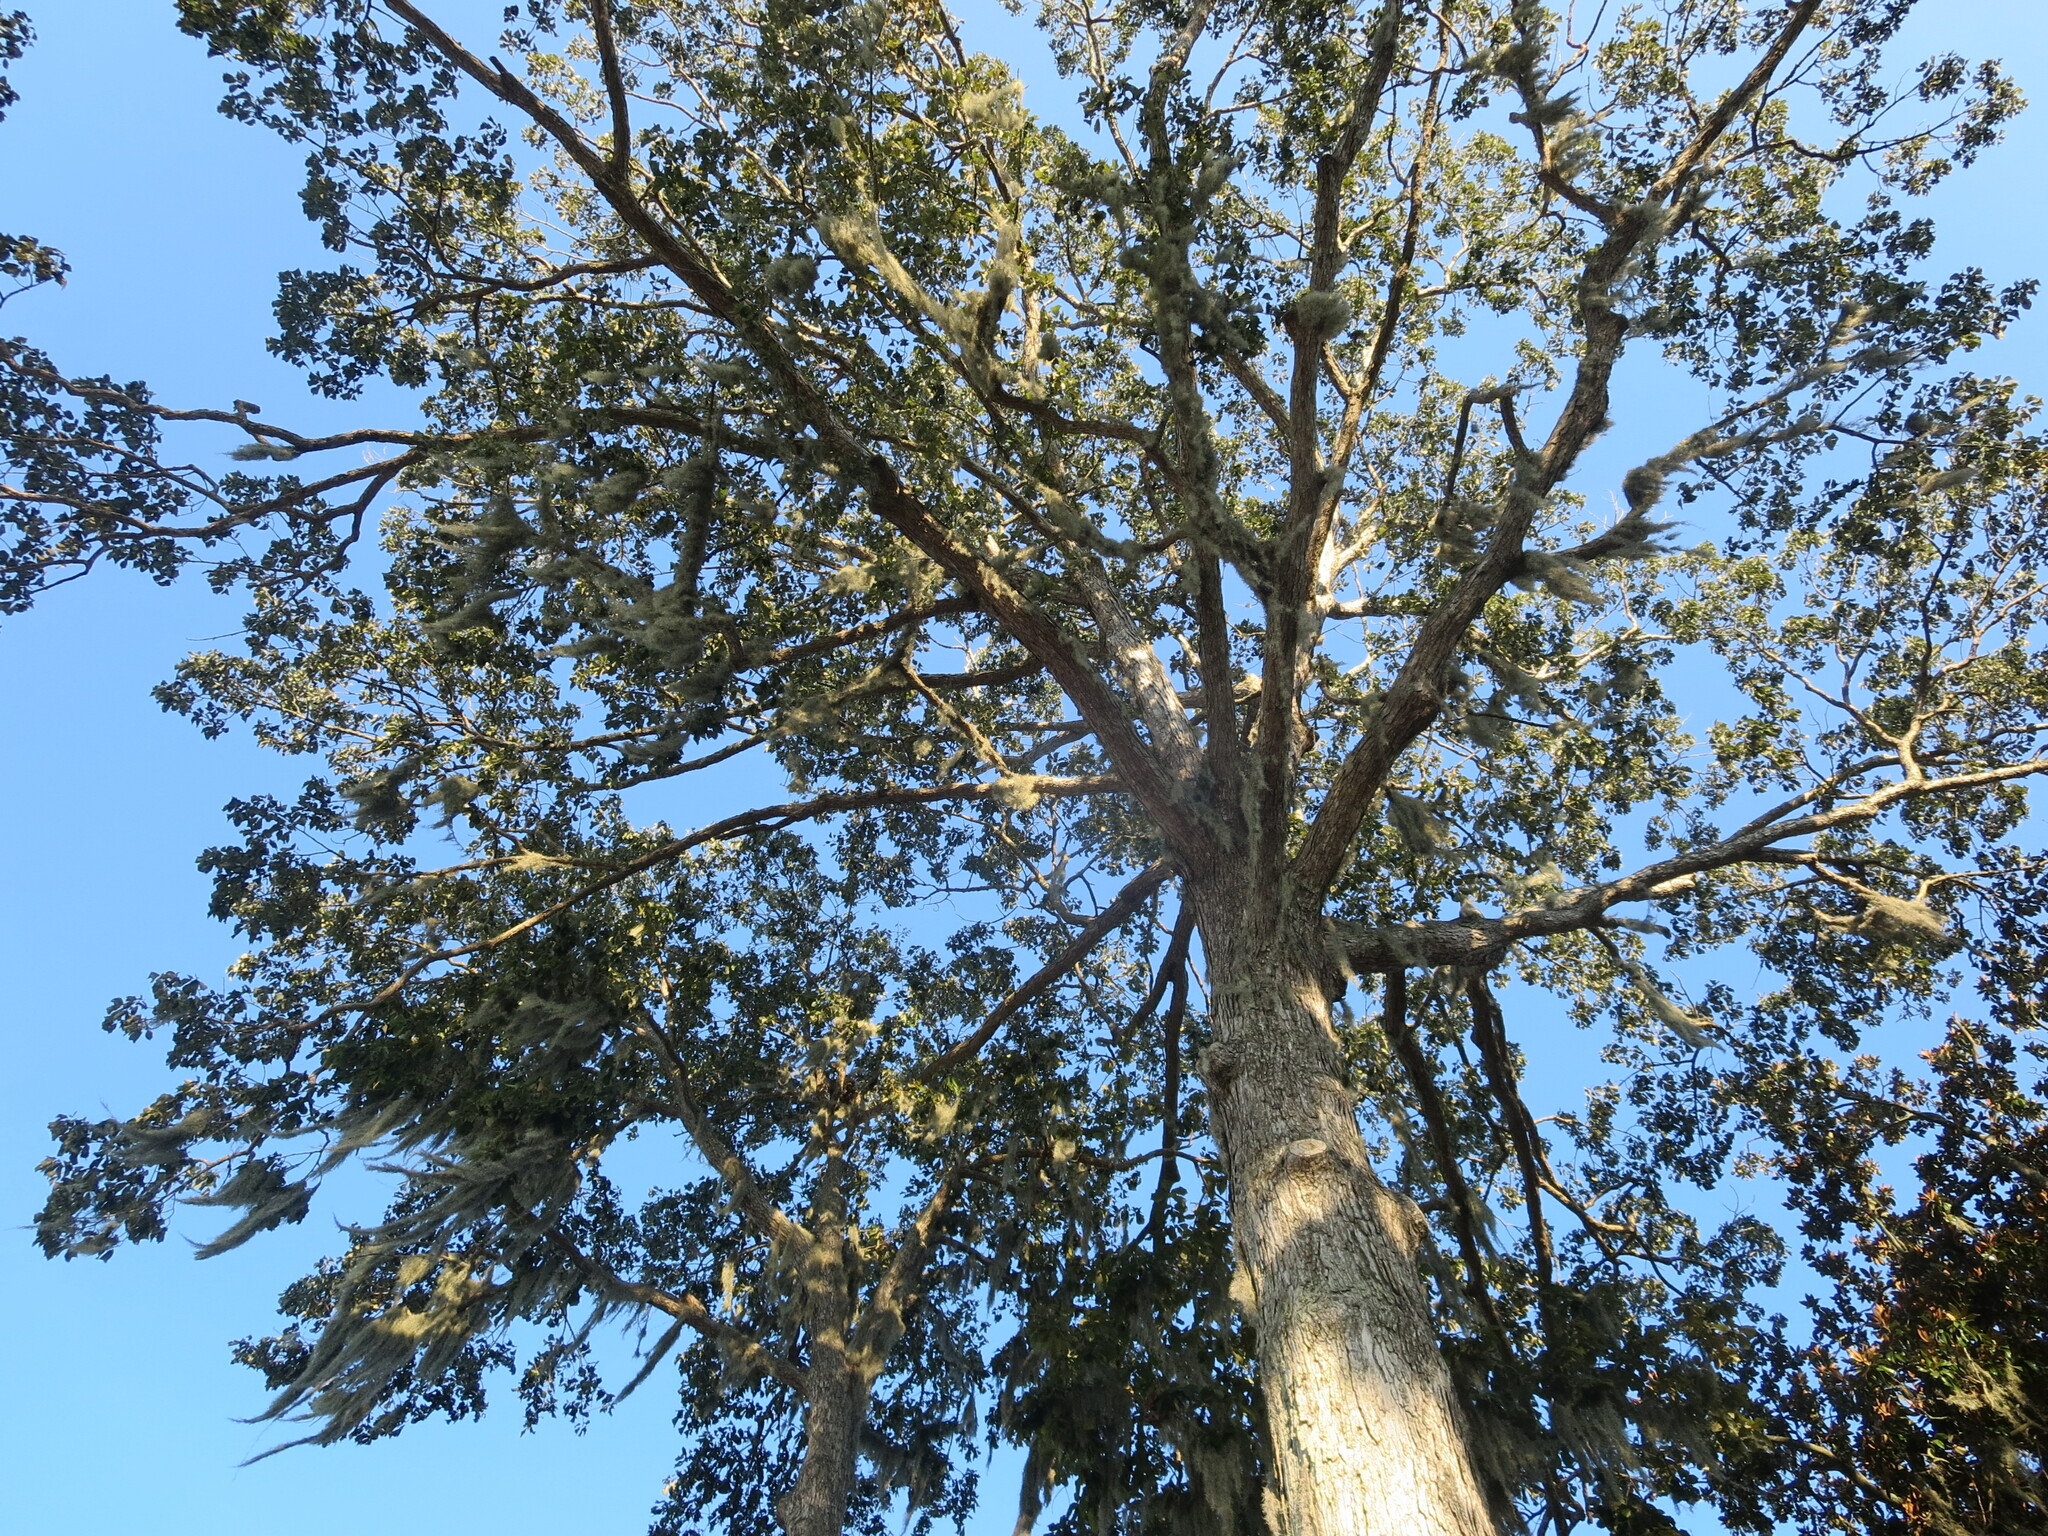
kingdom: Plantae
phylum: Tracheophyta
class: Magnoliopsida
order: Fagales
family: Fagaceae
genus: Quercus
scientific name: Quercus michauxii
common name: Swamp chestnut oak
